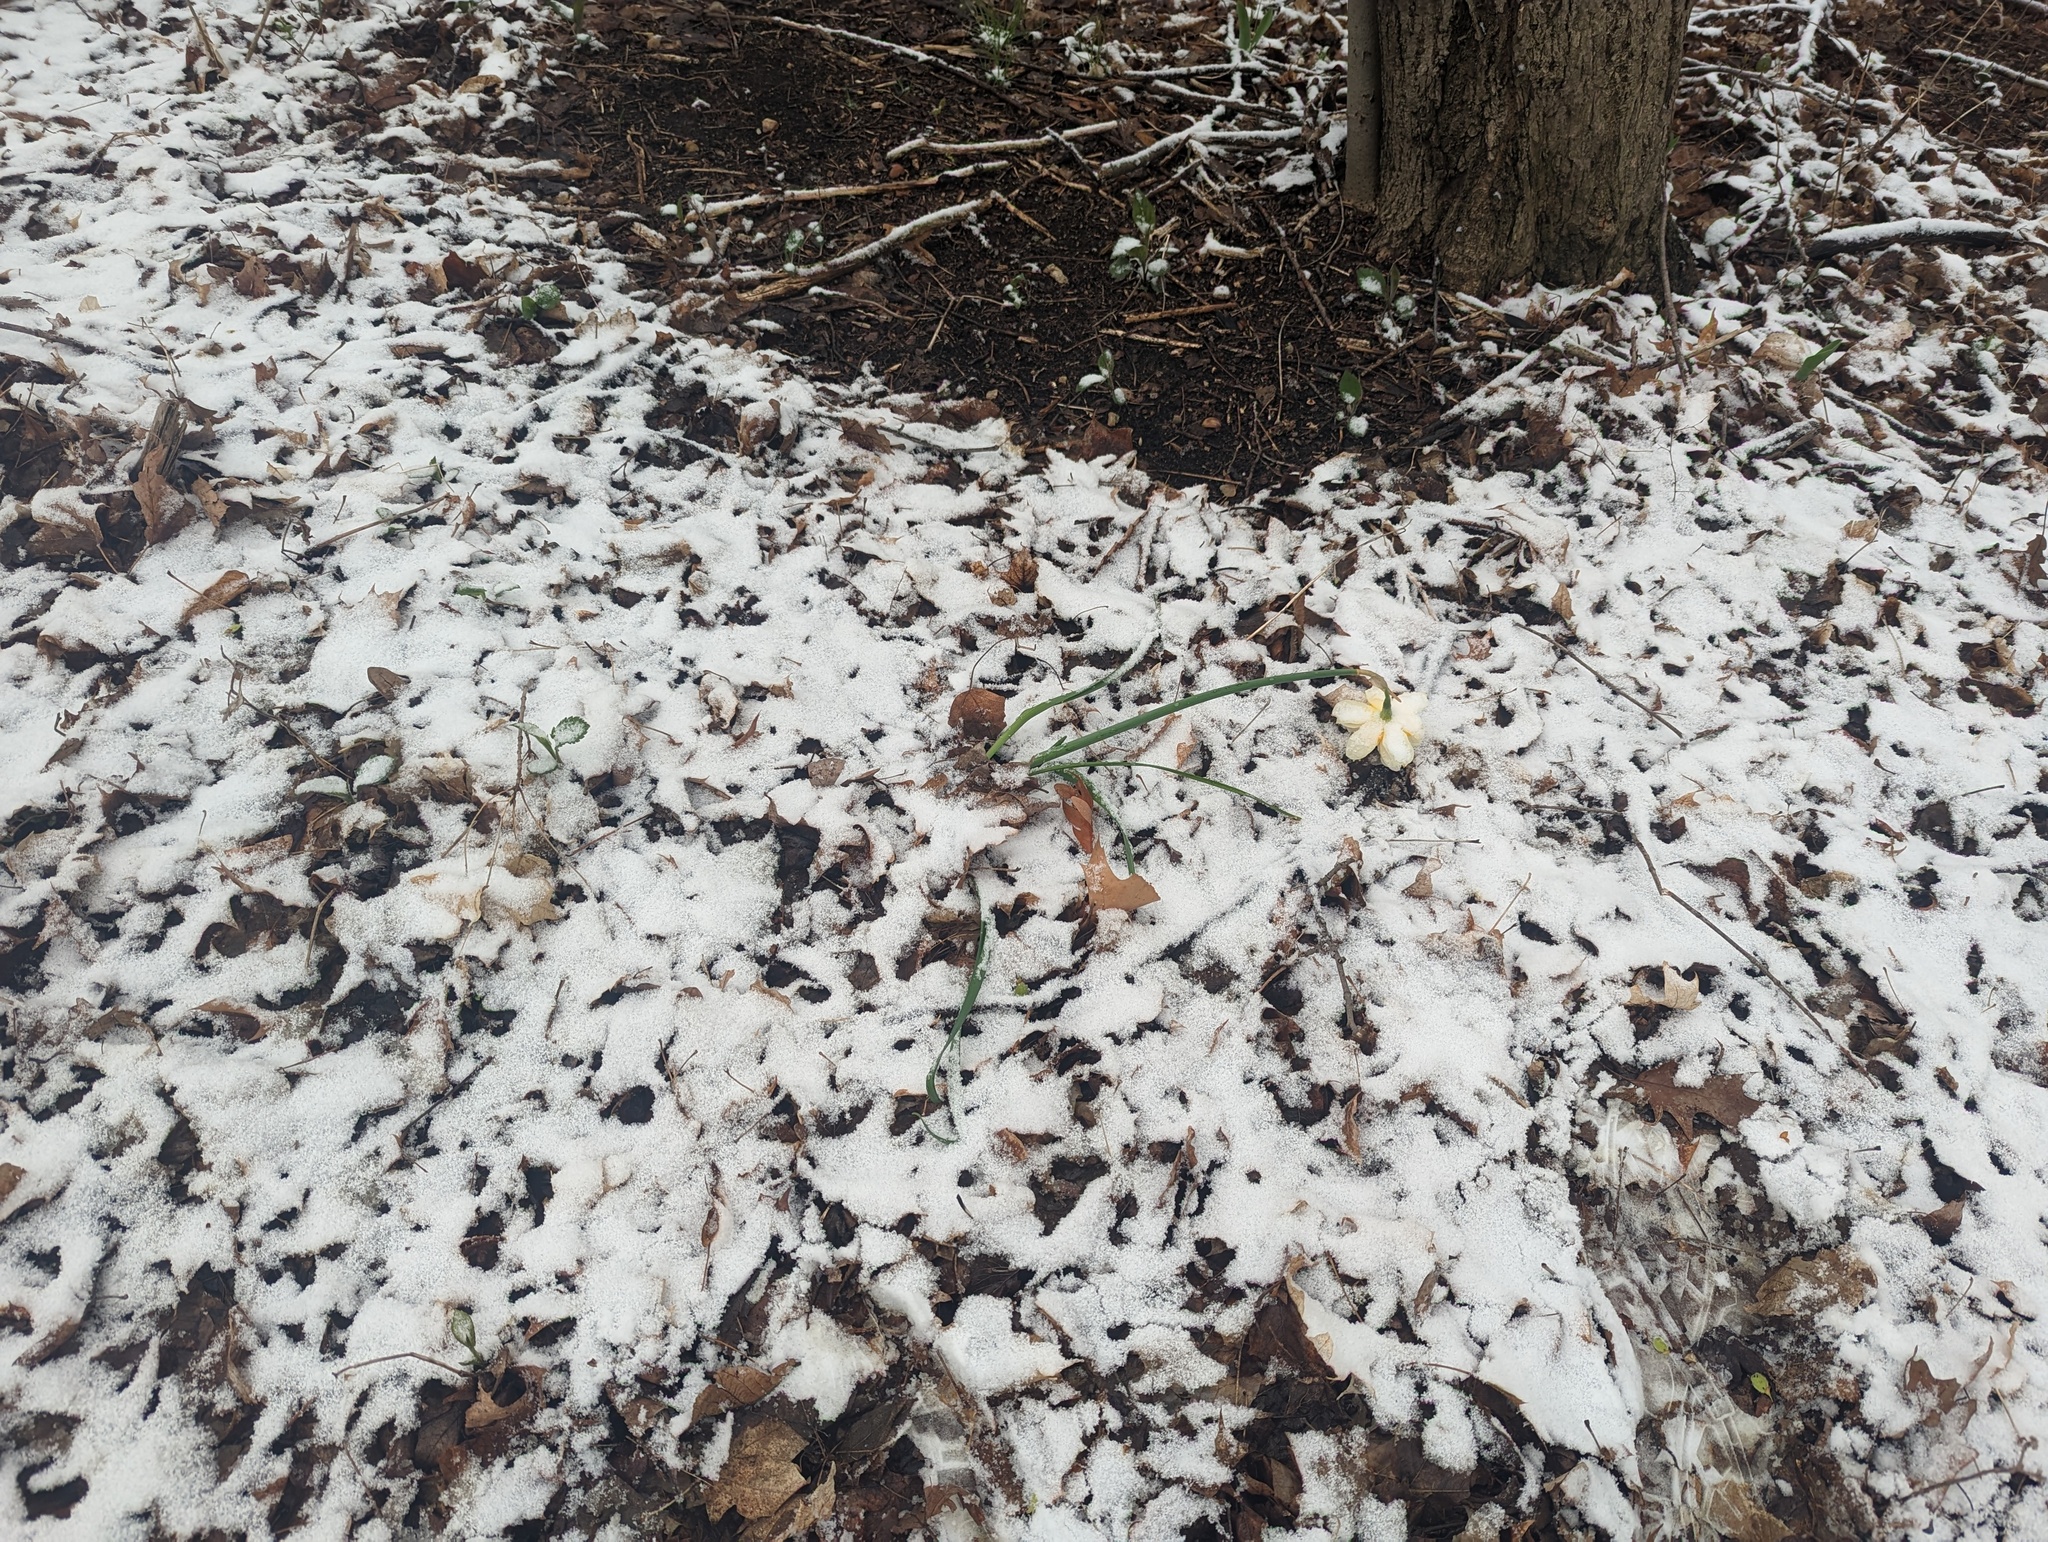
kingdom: Plantae
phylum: Tracheophyta
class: Liliopsida
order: Asparagales
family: Amaryllidaceae
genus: Narcissus
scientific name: Narcissus poeticus
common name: Pheasant's-eye daffodil
